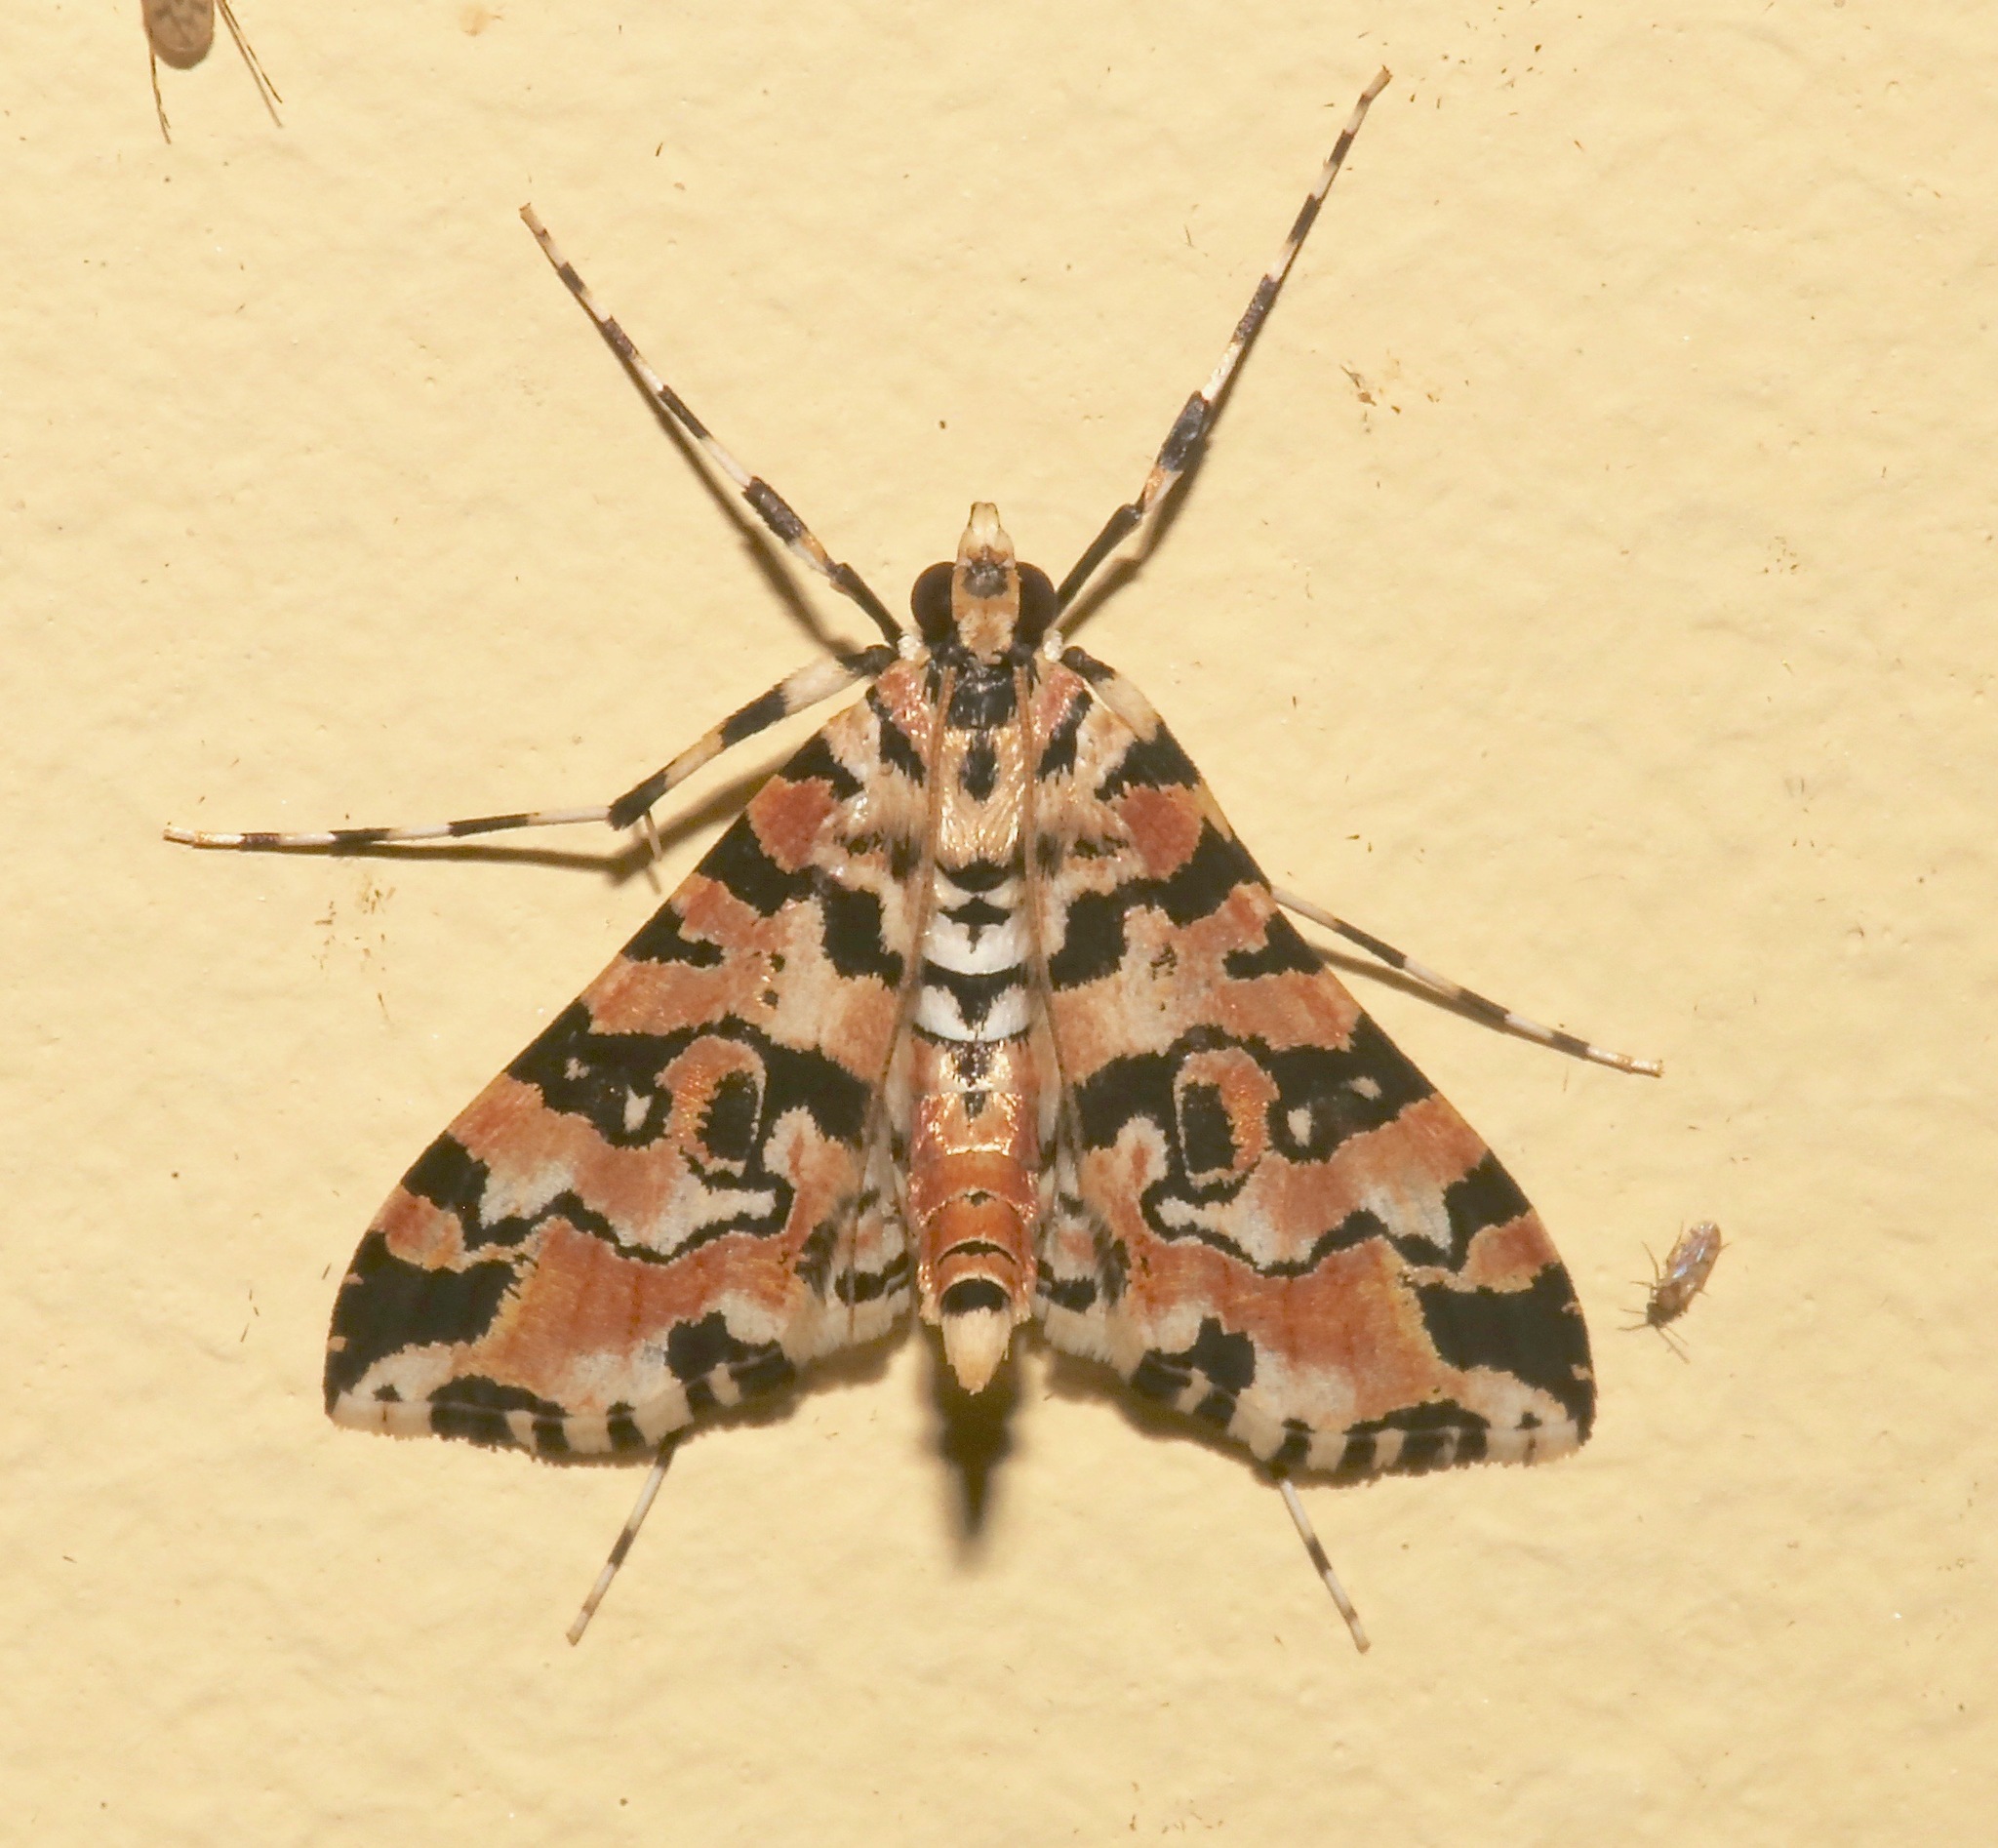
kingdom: Animalia
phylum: Arthropoda
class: Insecta
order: Lepidoptera
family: Crambidae
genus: Conchylodes
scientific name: Conchylodes bryophilalis
